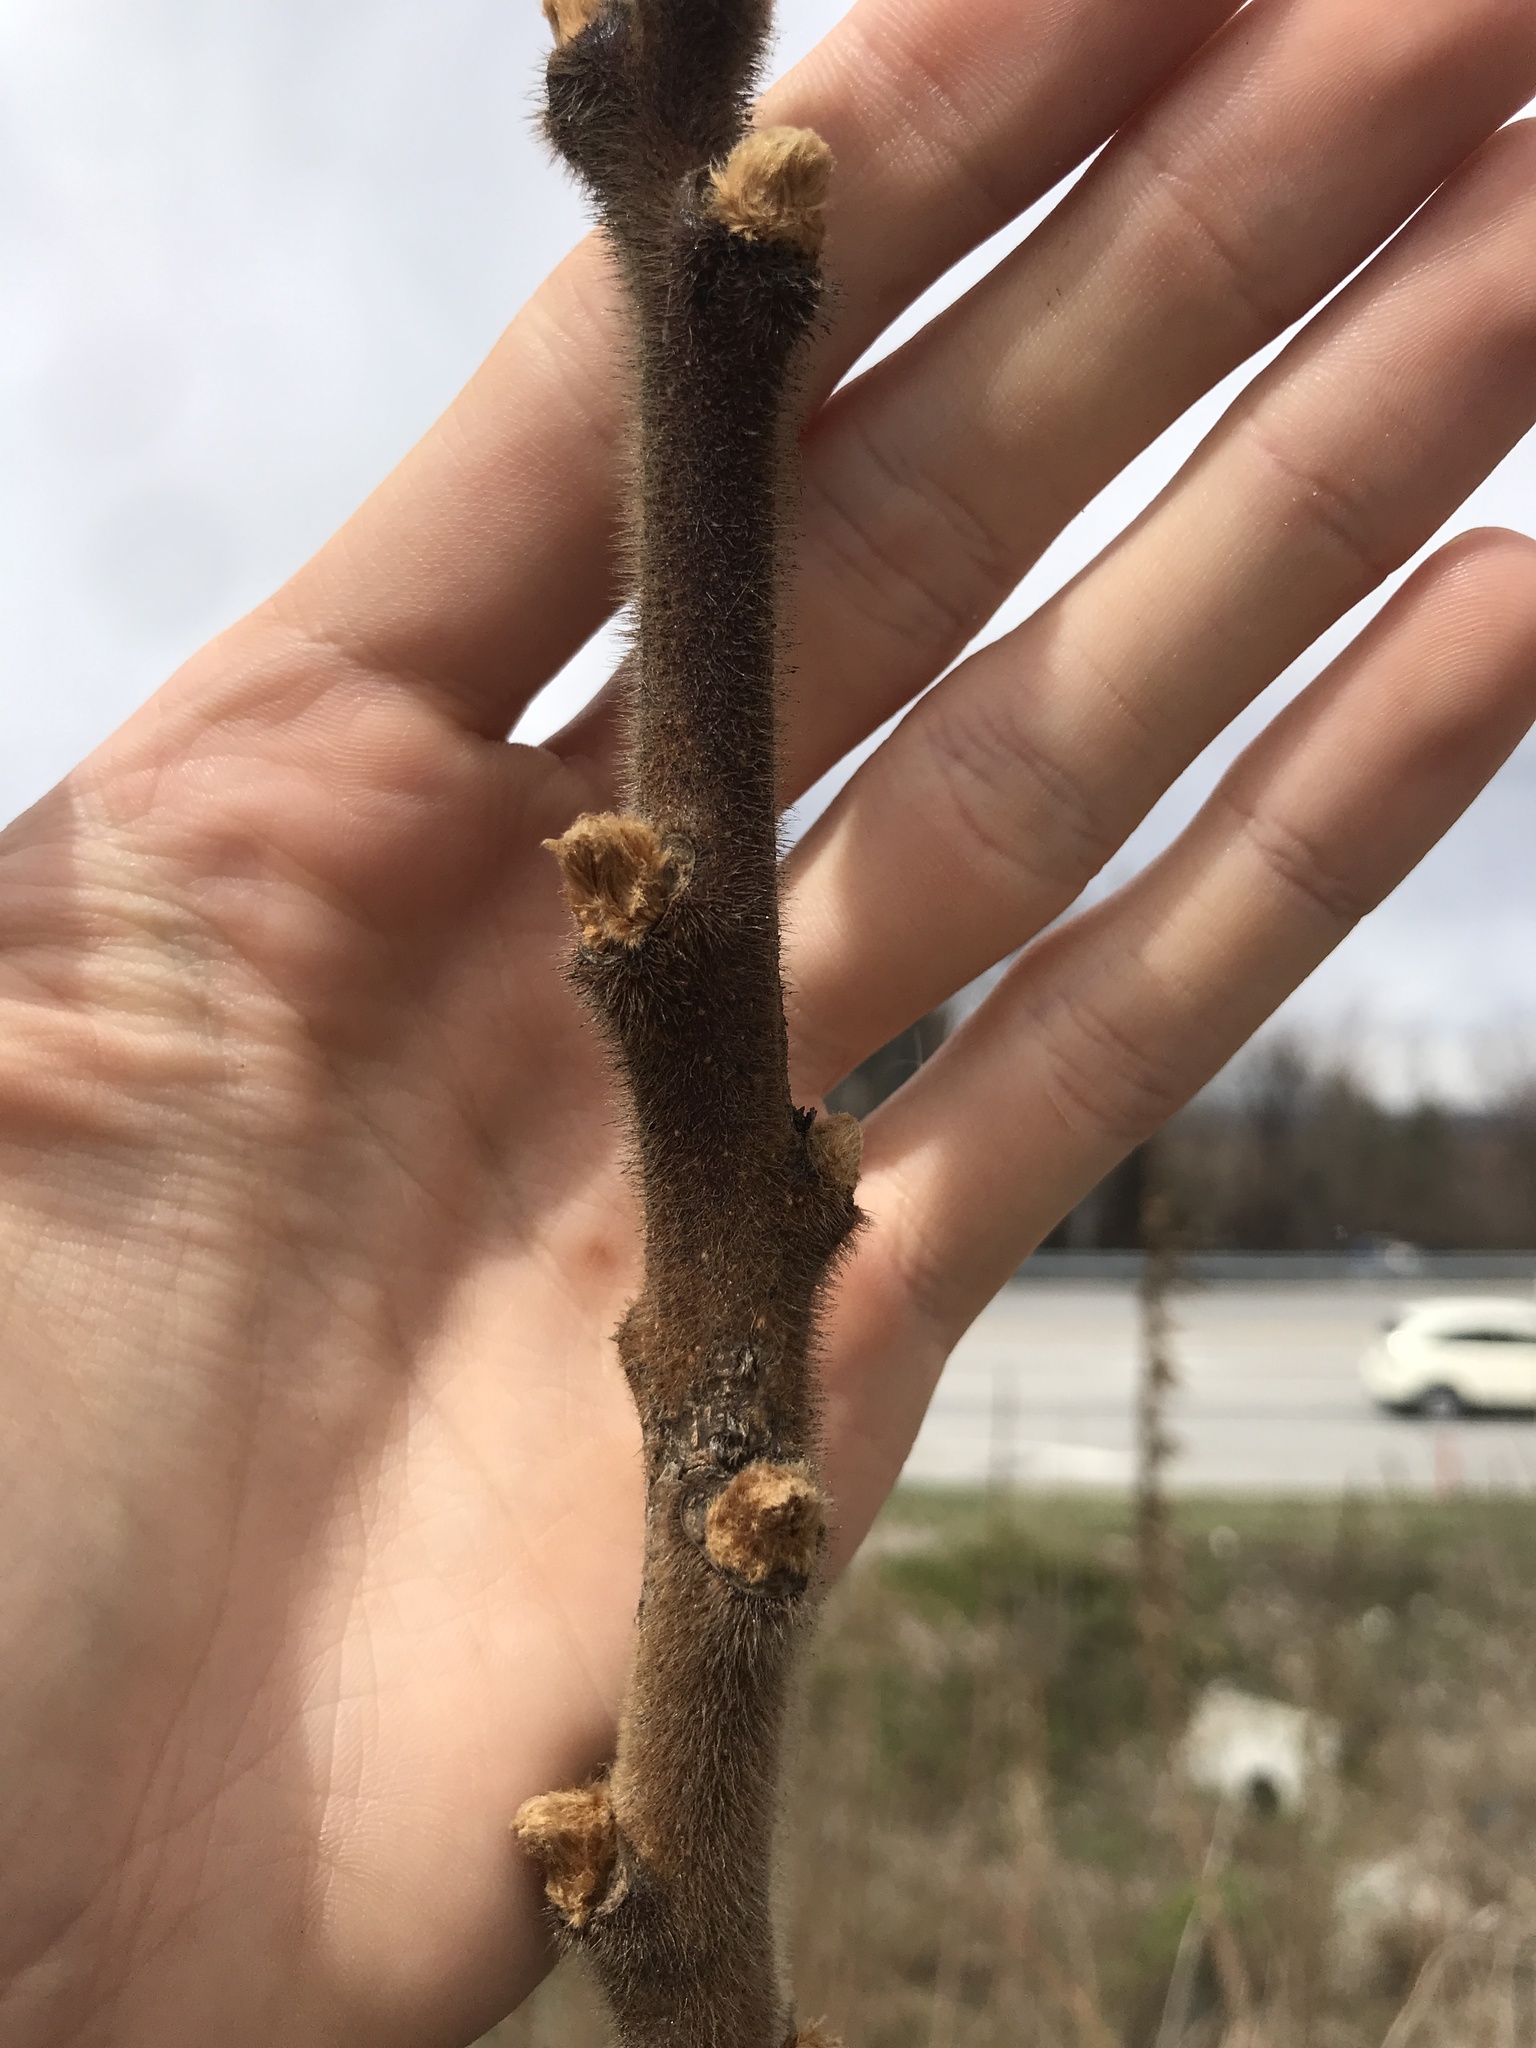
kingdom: Plantae
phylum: Tracheophyta
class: Magnoliopsida
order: Sapindales
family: Anacardiaceae
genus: Rhus
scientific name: Rhus typhina
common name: Staghorn sumac
